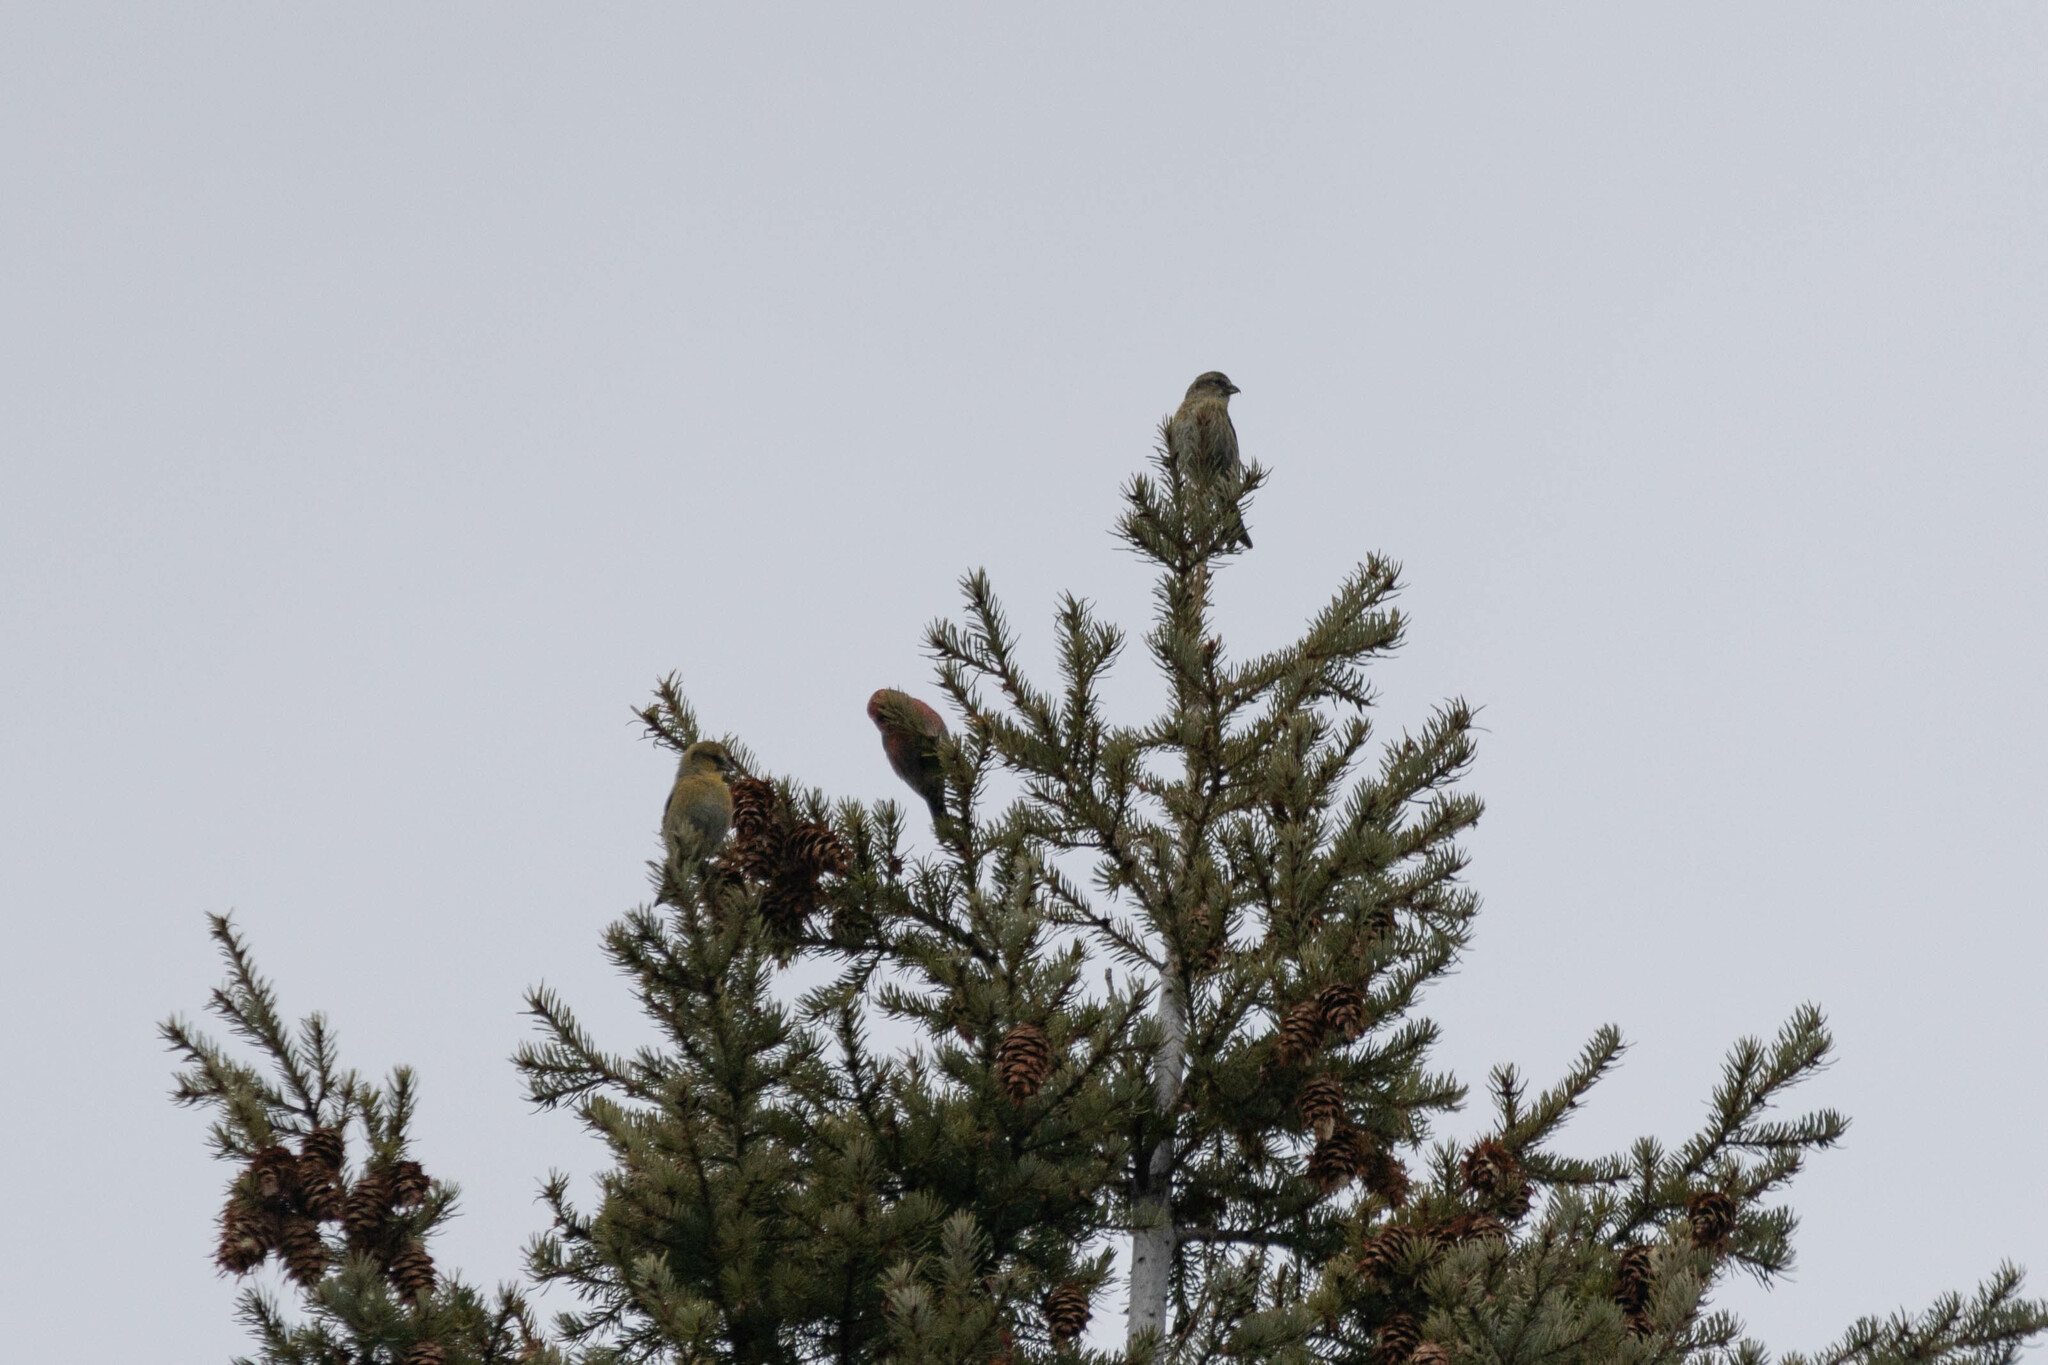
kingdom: Animalia
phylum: Chordata
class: Aves
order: Passeriformes
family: Fringillidae
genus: Loxia
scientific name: Loxia curvirostra
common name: Red crossbill
